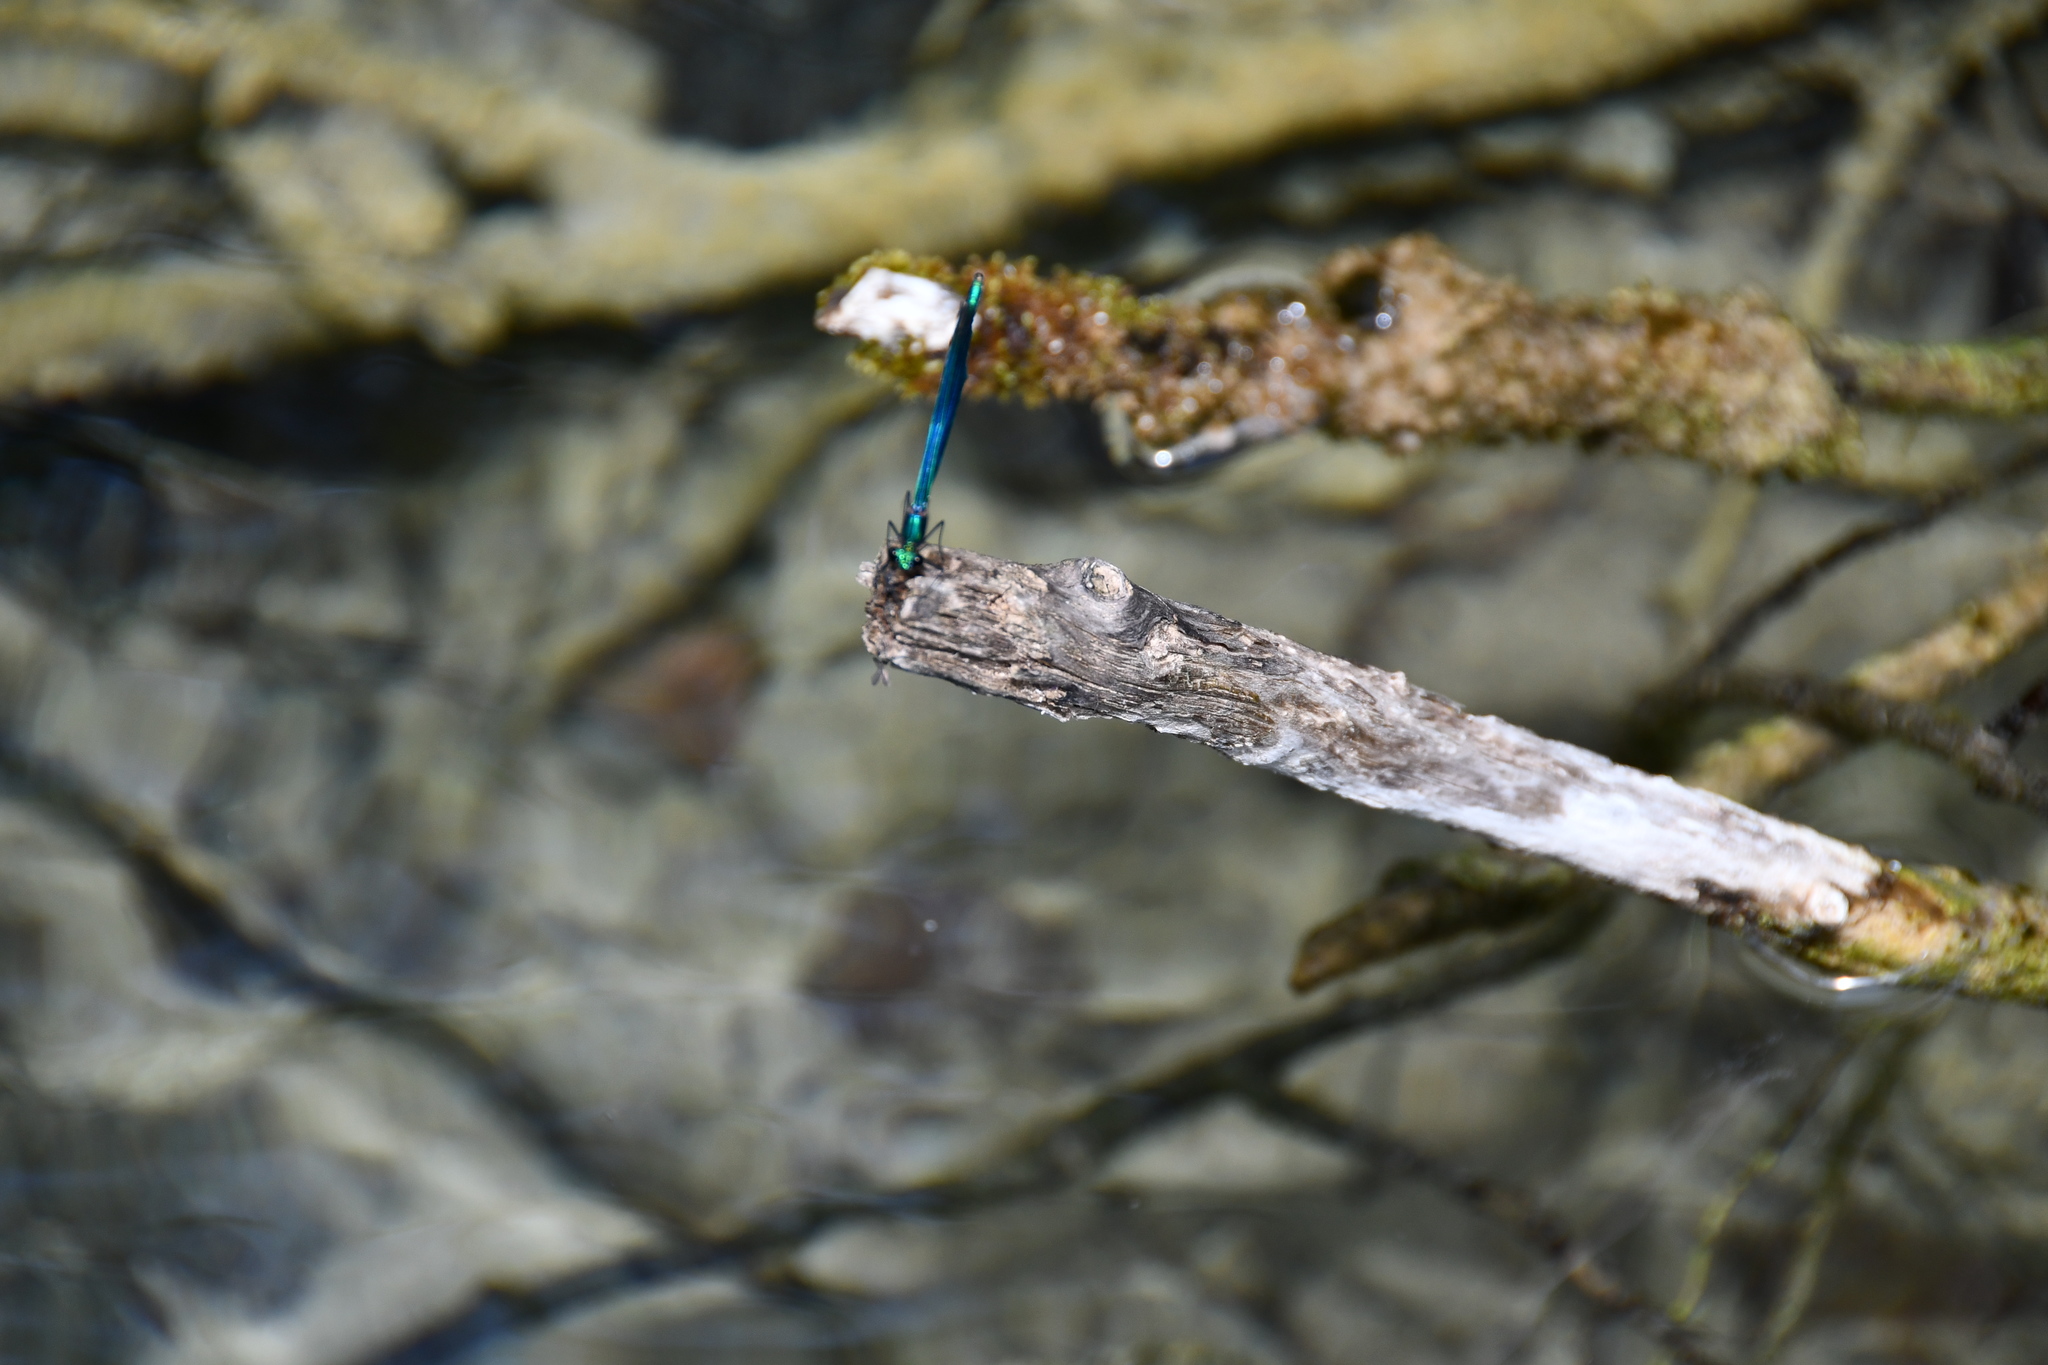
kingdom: Animalia
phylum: Arthropoda
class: Insecta
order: Odonata
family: Calopterygidae
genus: Calopteryx
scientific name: Calopteryx virgo
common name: Beautiful demoiselle
